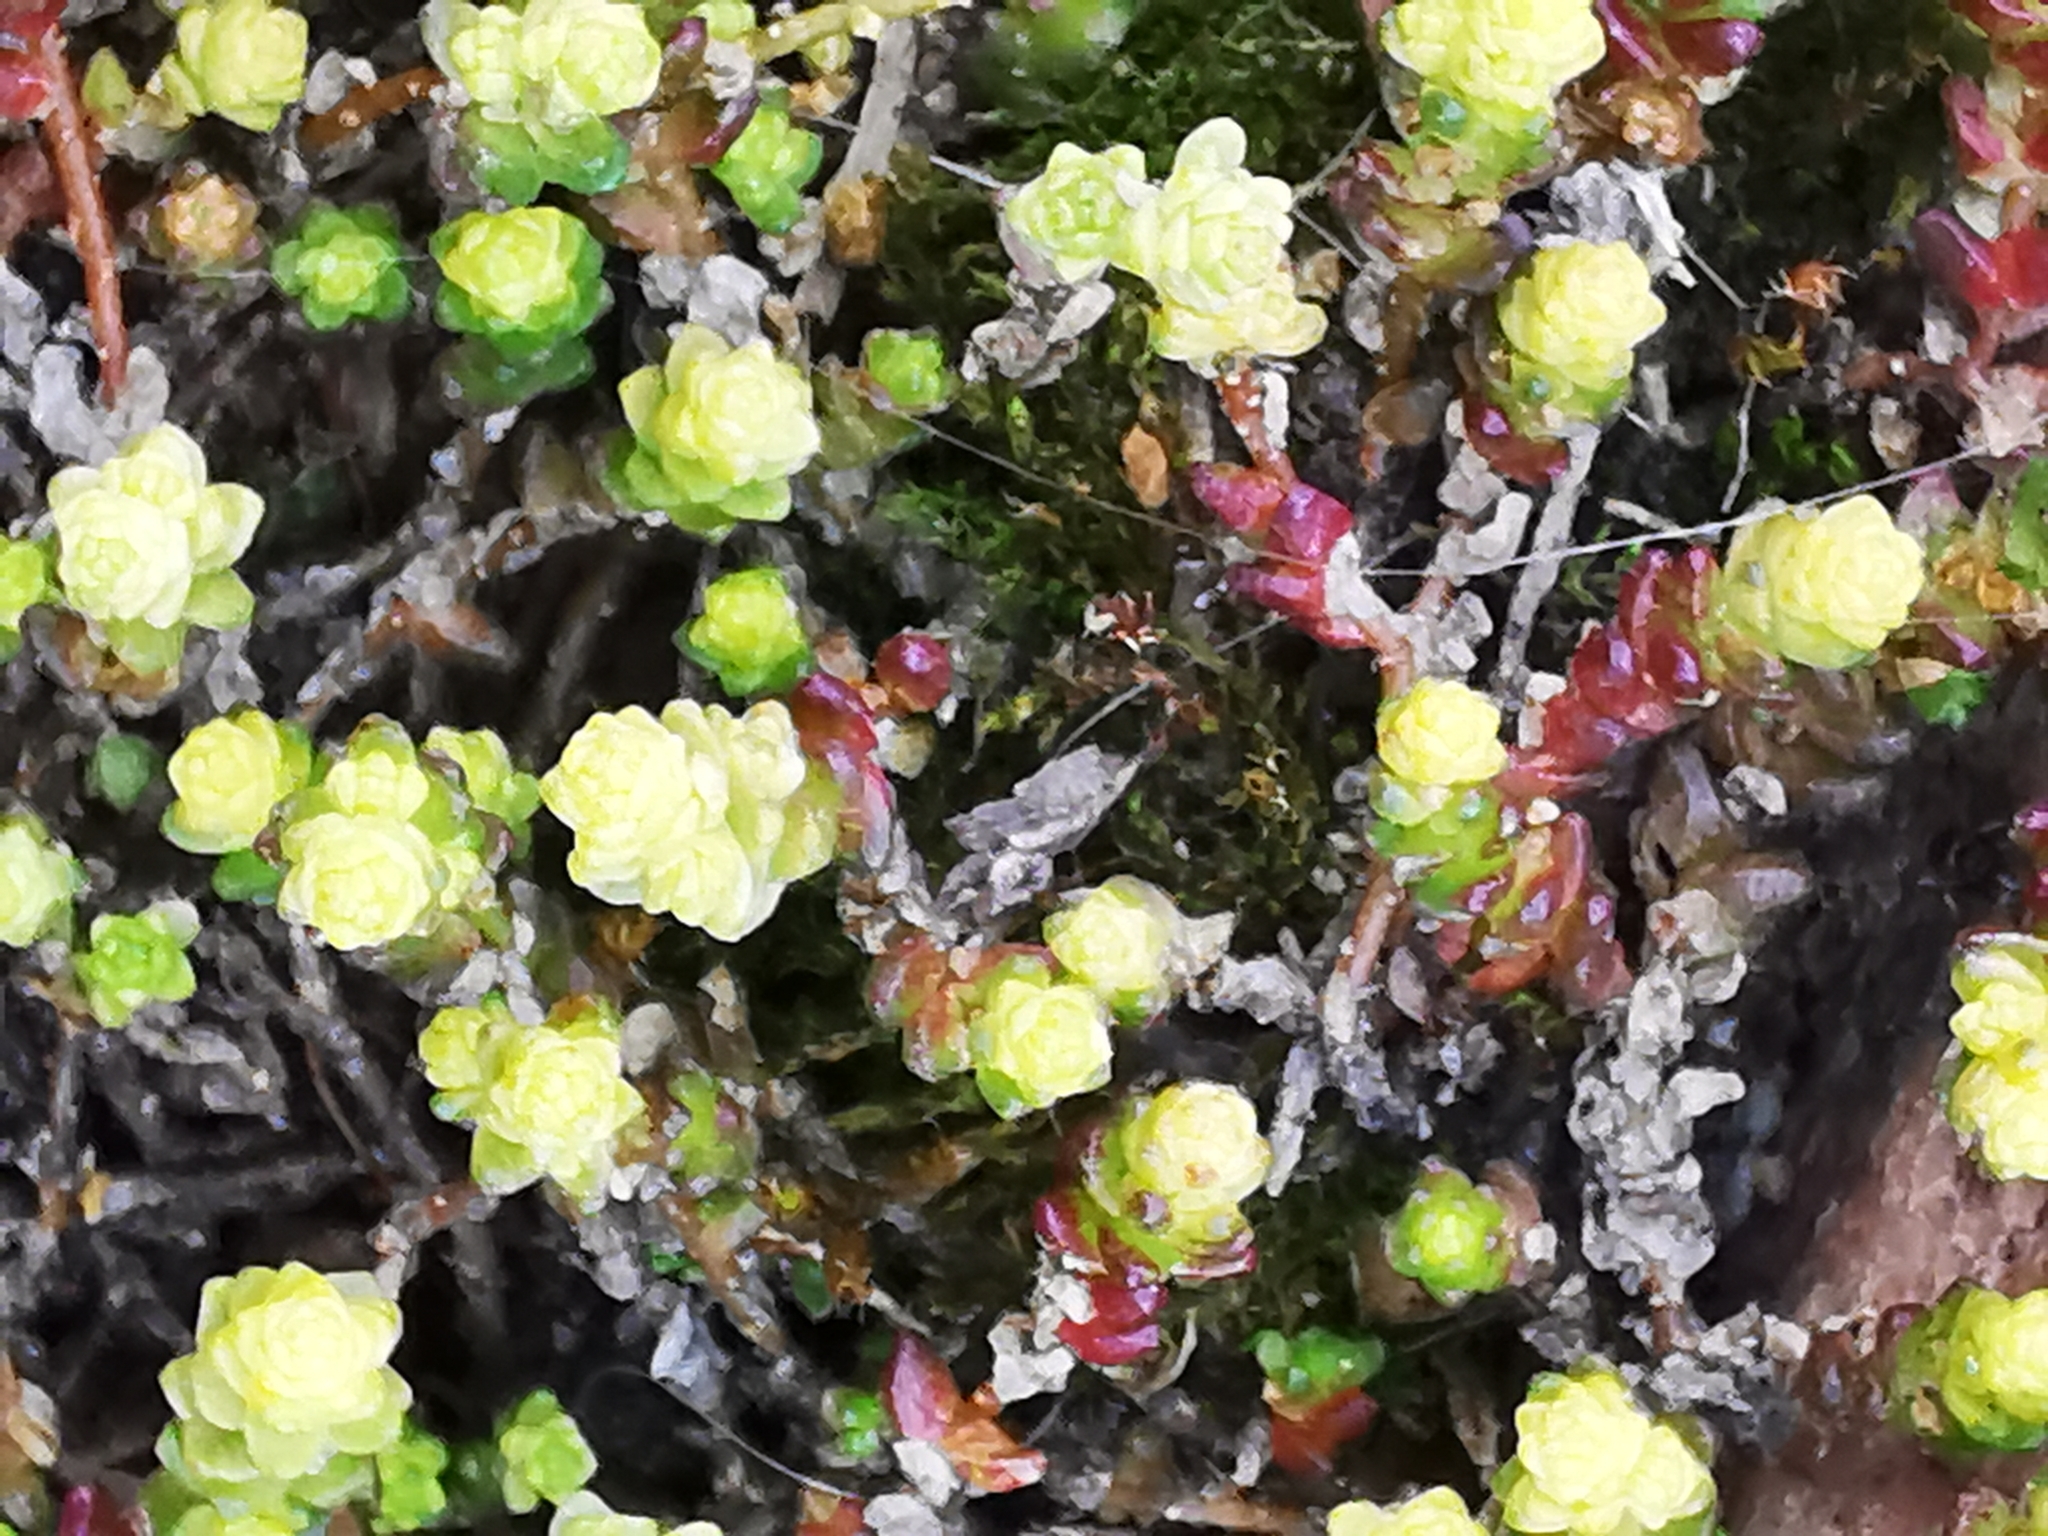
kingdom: Plantae
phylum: Tracheophyta
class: Magnoliopsida
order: Saxifragales
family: Crassulaceae
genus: Sedum
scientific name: Sedum acre
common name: Biting stonecrop
